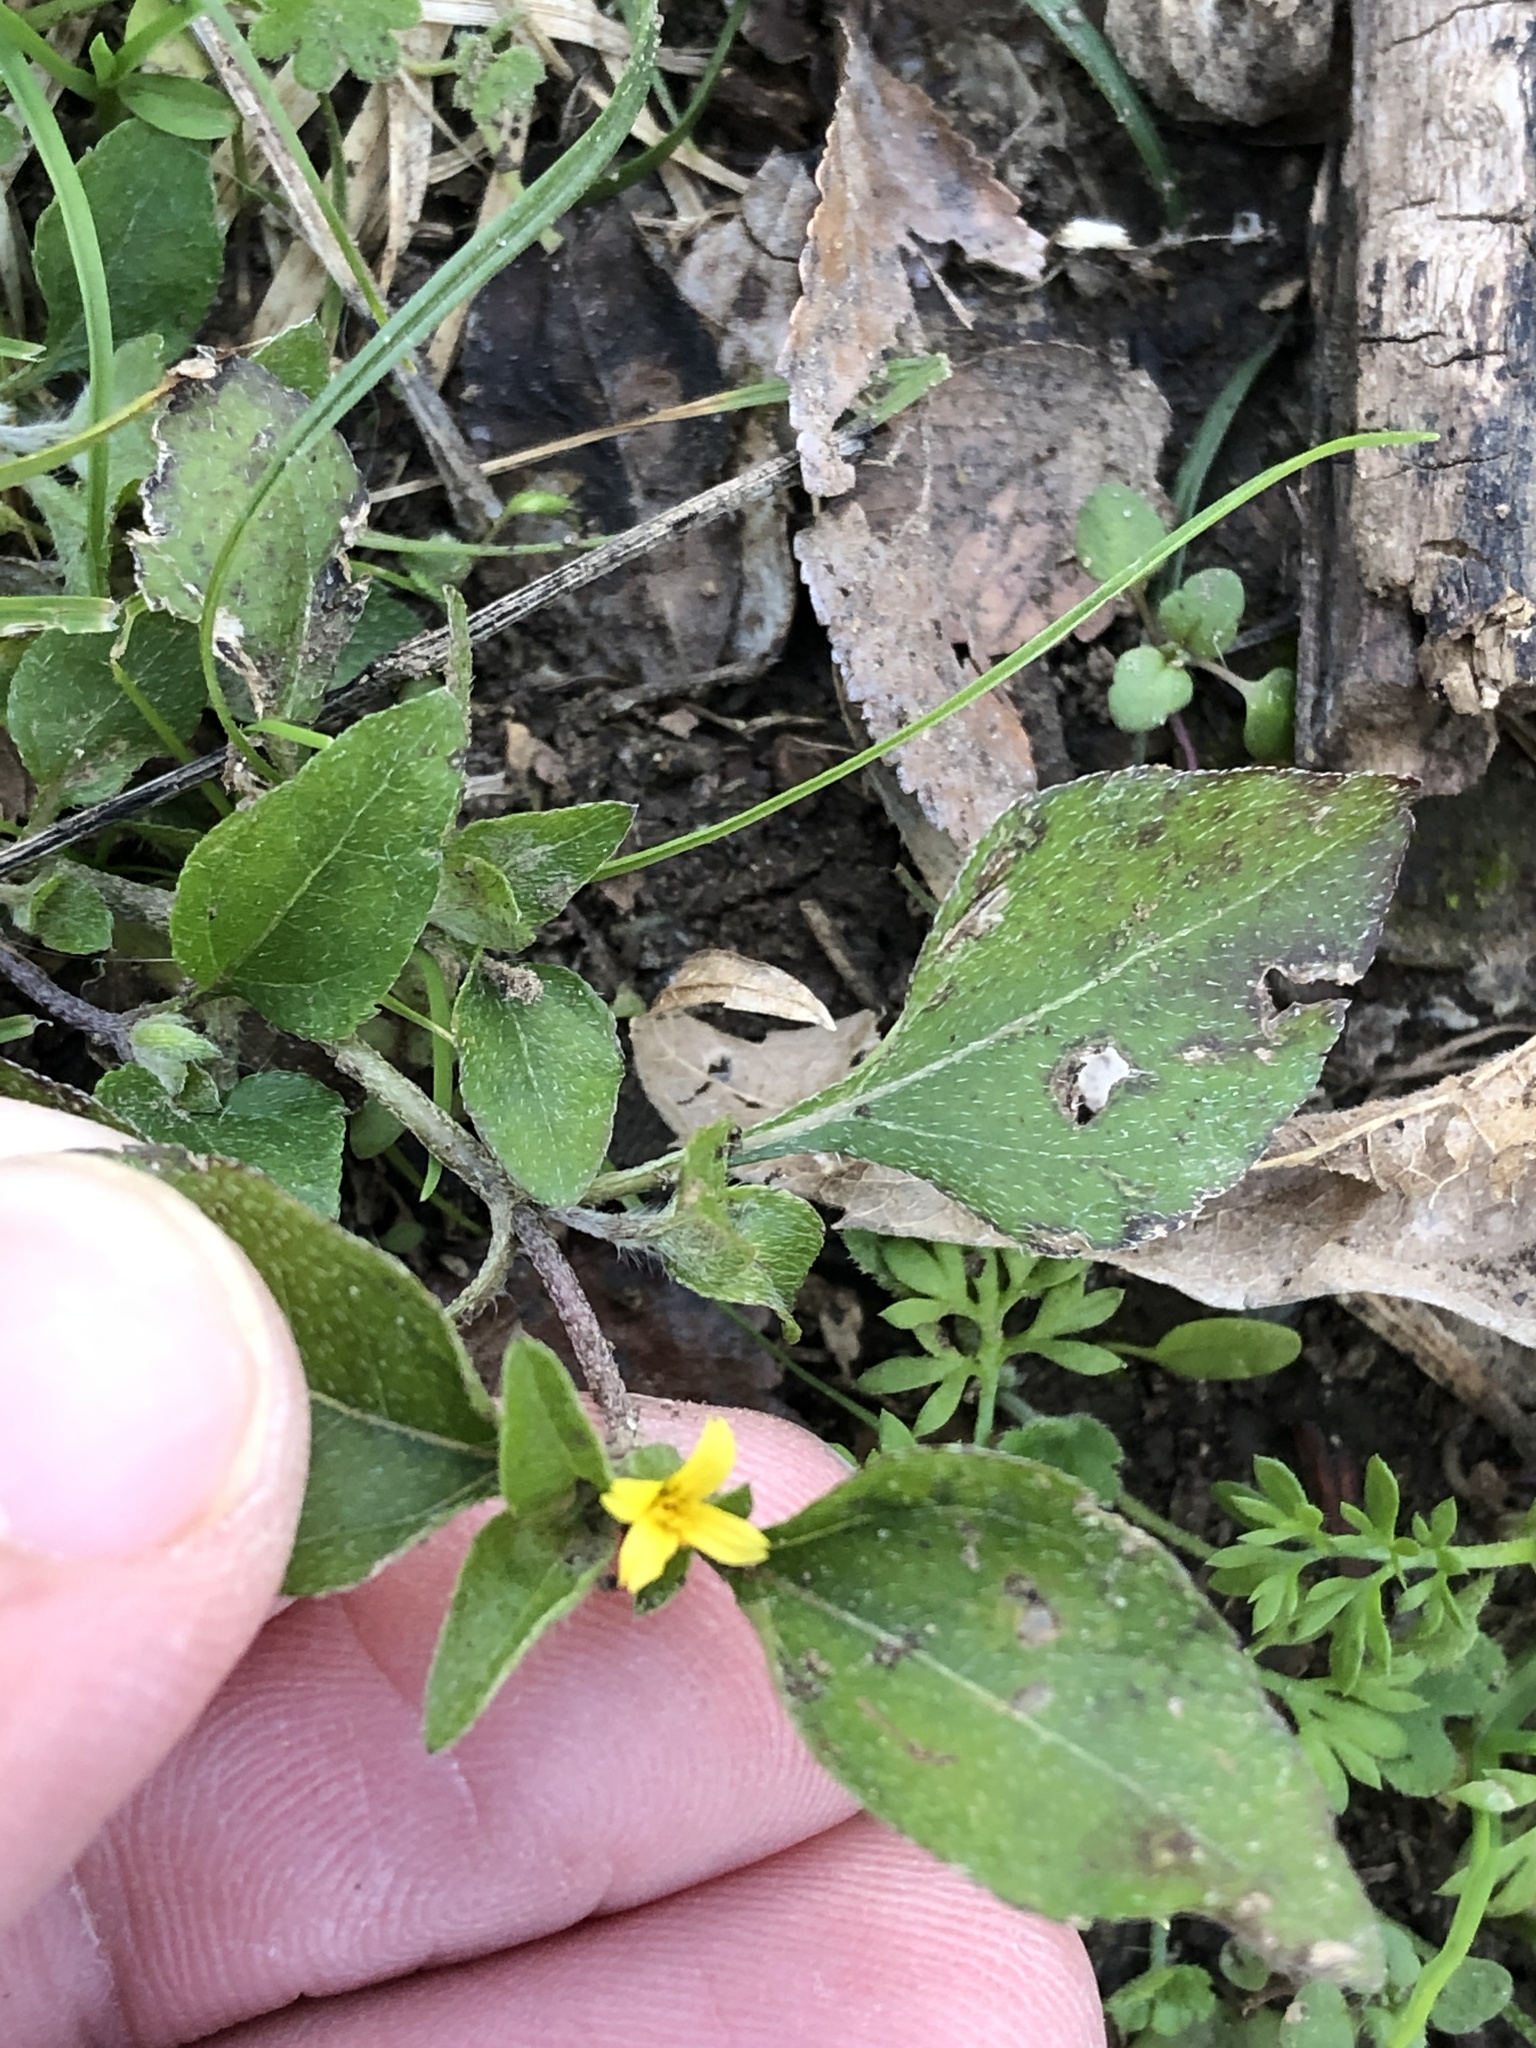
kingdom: Plantae
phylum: Tracheophyta
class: Magnoliopsida
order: Asterales
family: Asteraceae
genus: Calyptocarpus
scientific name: Calyptocarpus vialis
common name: Straggler daisy
